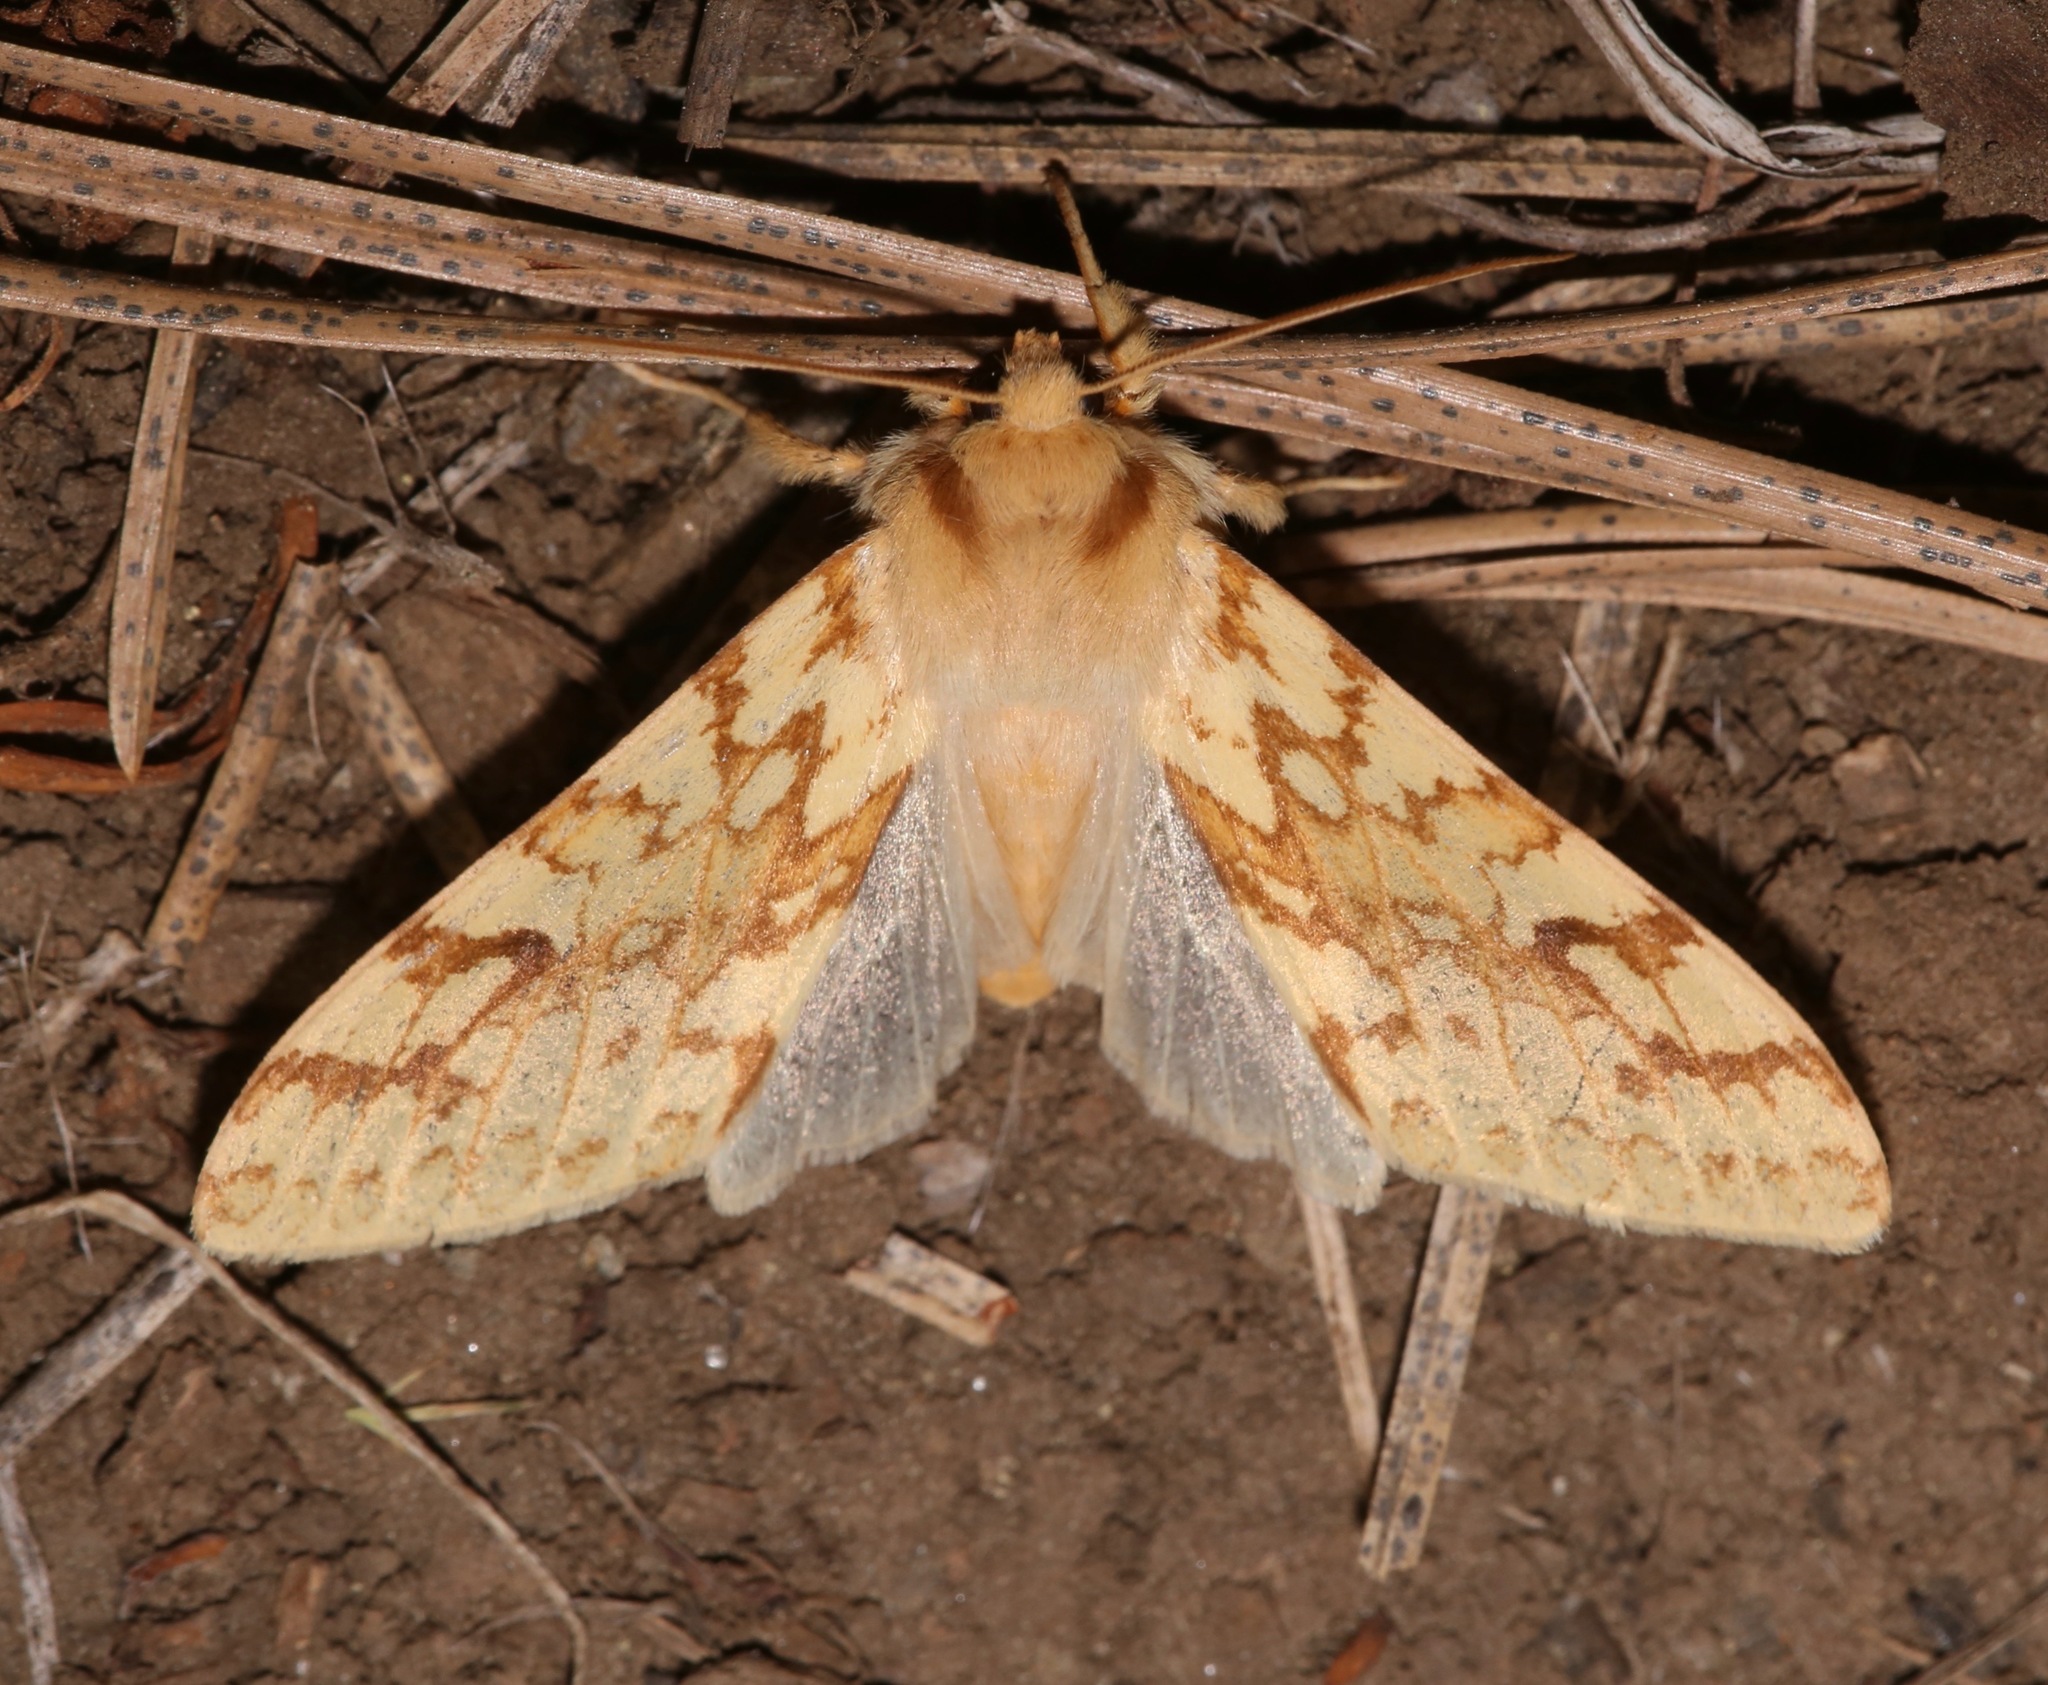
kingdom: Animalia
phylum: Arthropoda
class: Insecta
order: Lepidoptera
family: Erebidae
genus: Lophocampa
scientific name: Lophocampa maculata
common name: Spotted tussock moth
